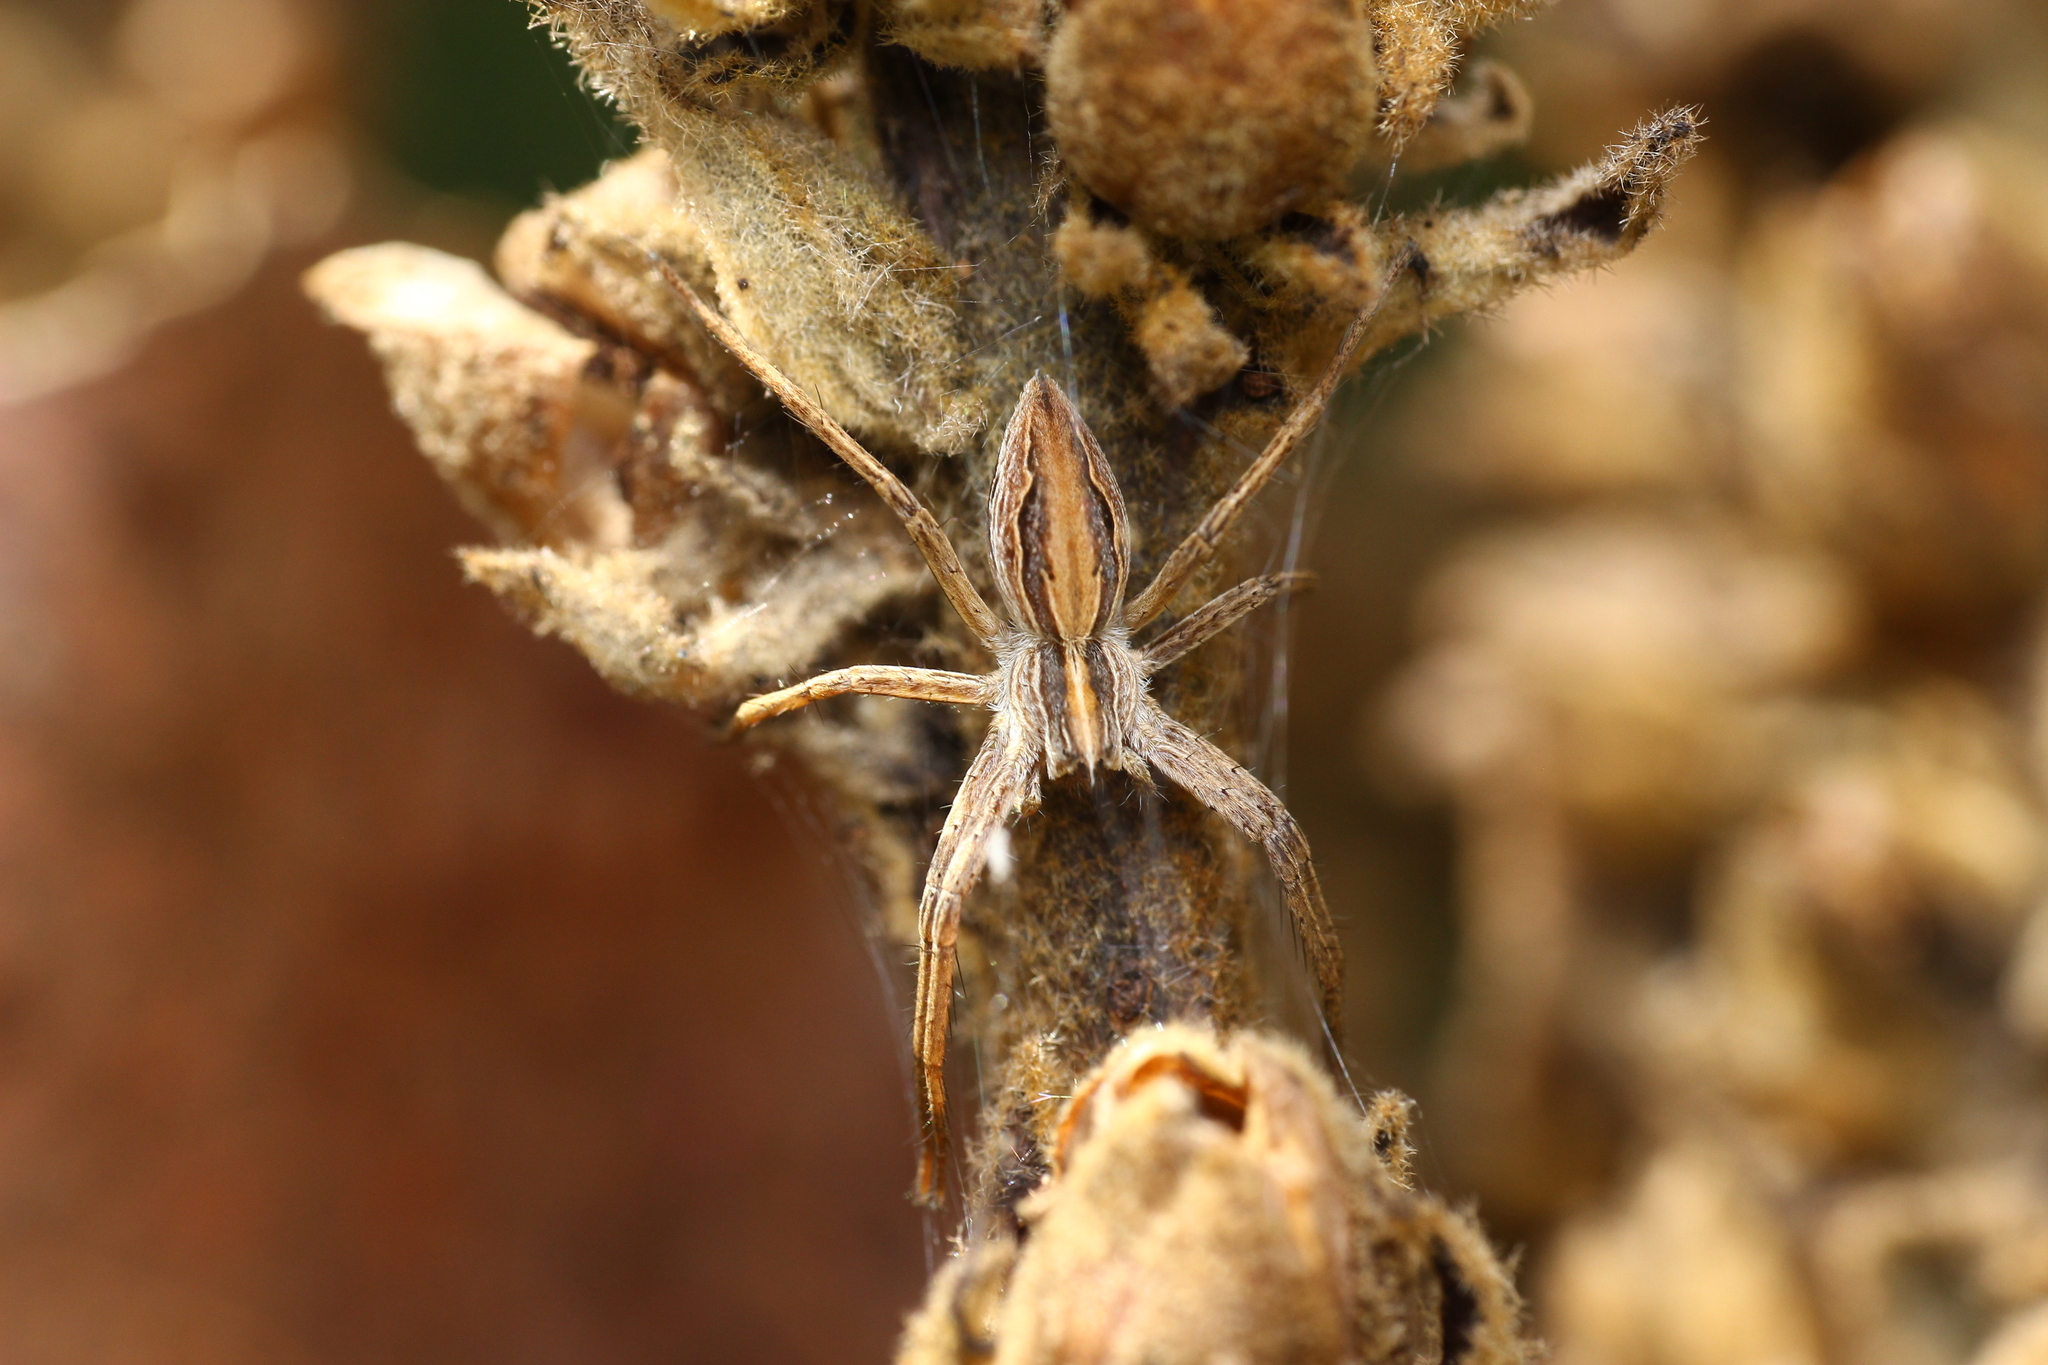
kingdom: Animalia
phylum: Arthropoda
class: Arachnida
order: Araneae
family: Pisauridae
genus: Pisaura
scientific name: Pisaura mirabilis
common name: Tent spider
